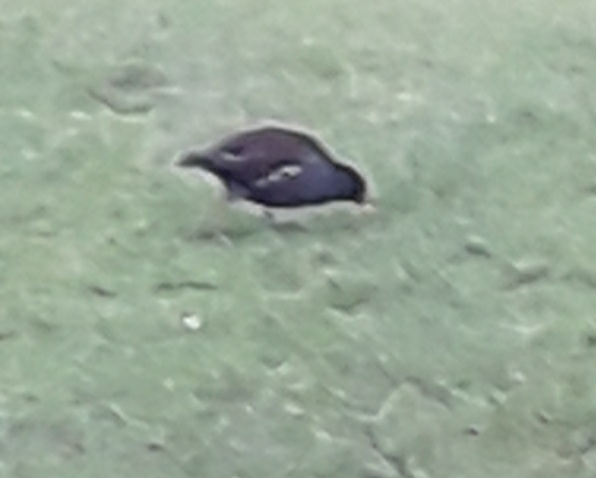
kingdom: Animalia
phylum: Chordata
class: Aves
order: Gruiformes
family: Rallidae
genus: Gallinula
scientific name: Gallinula chloropus
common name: Common moorhen
